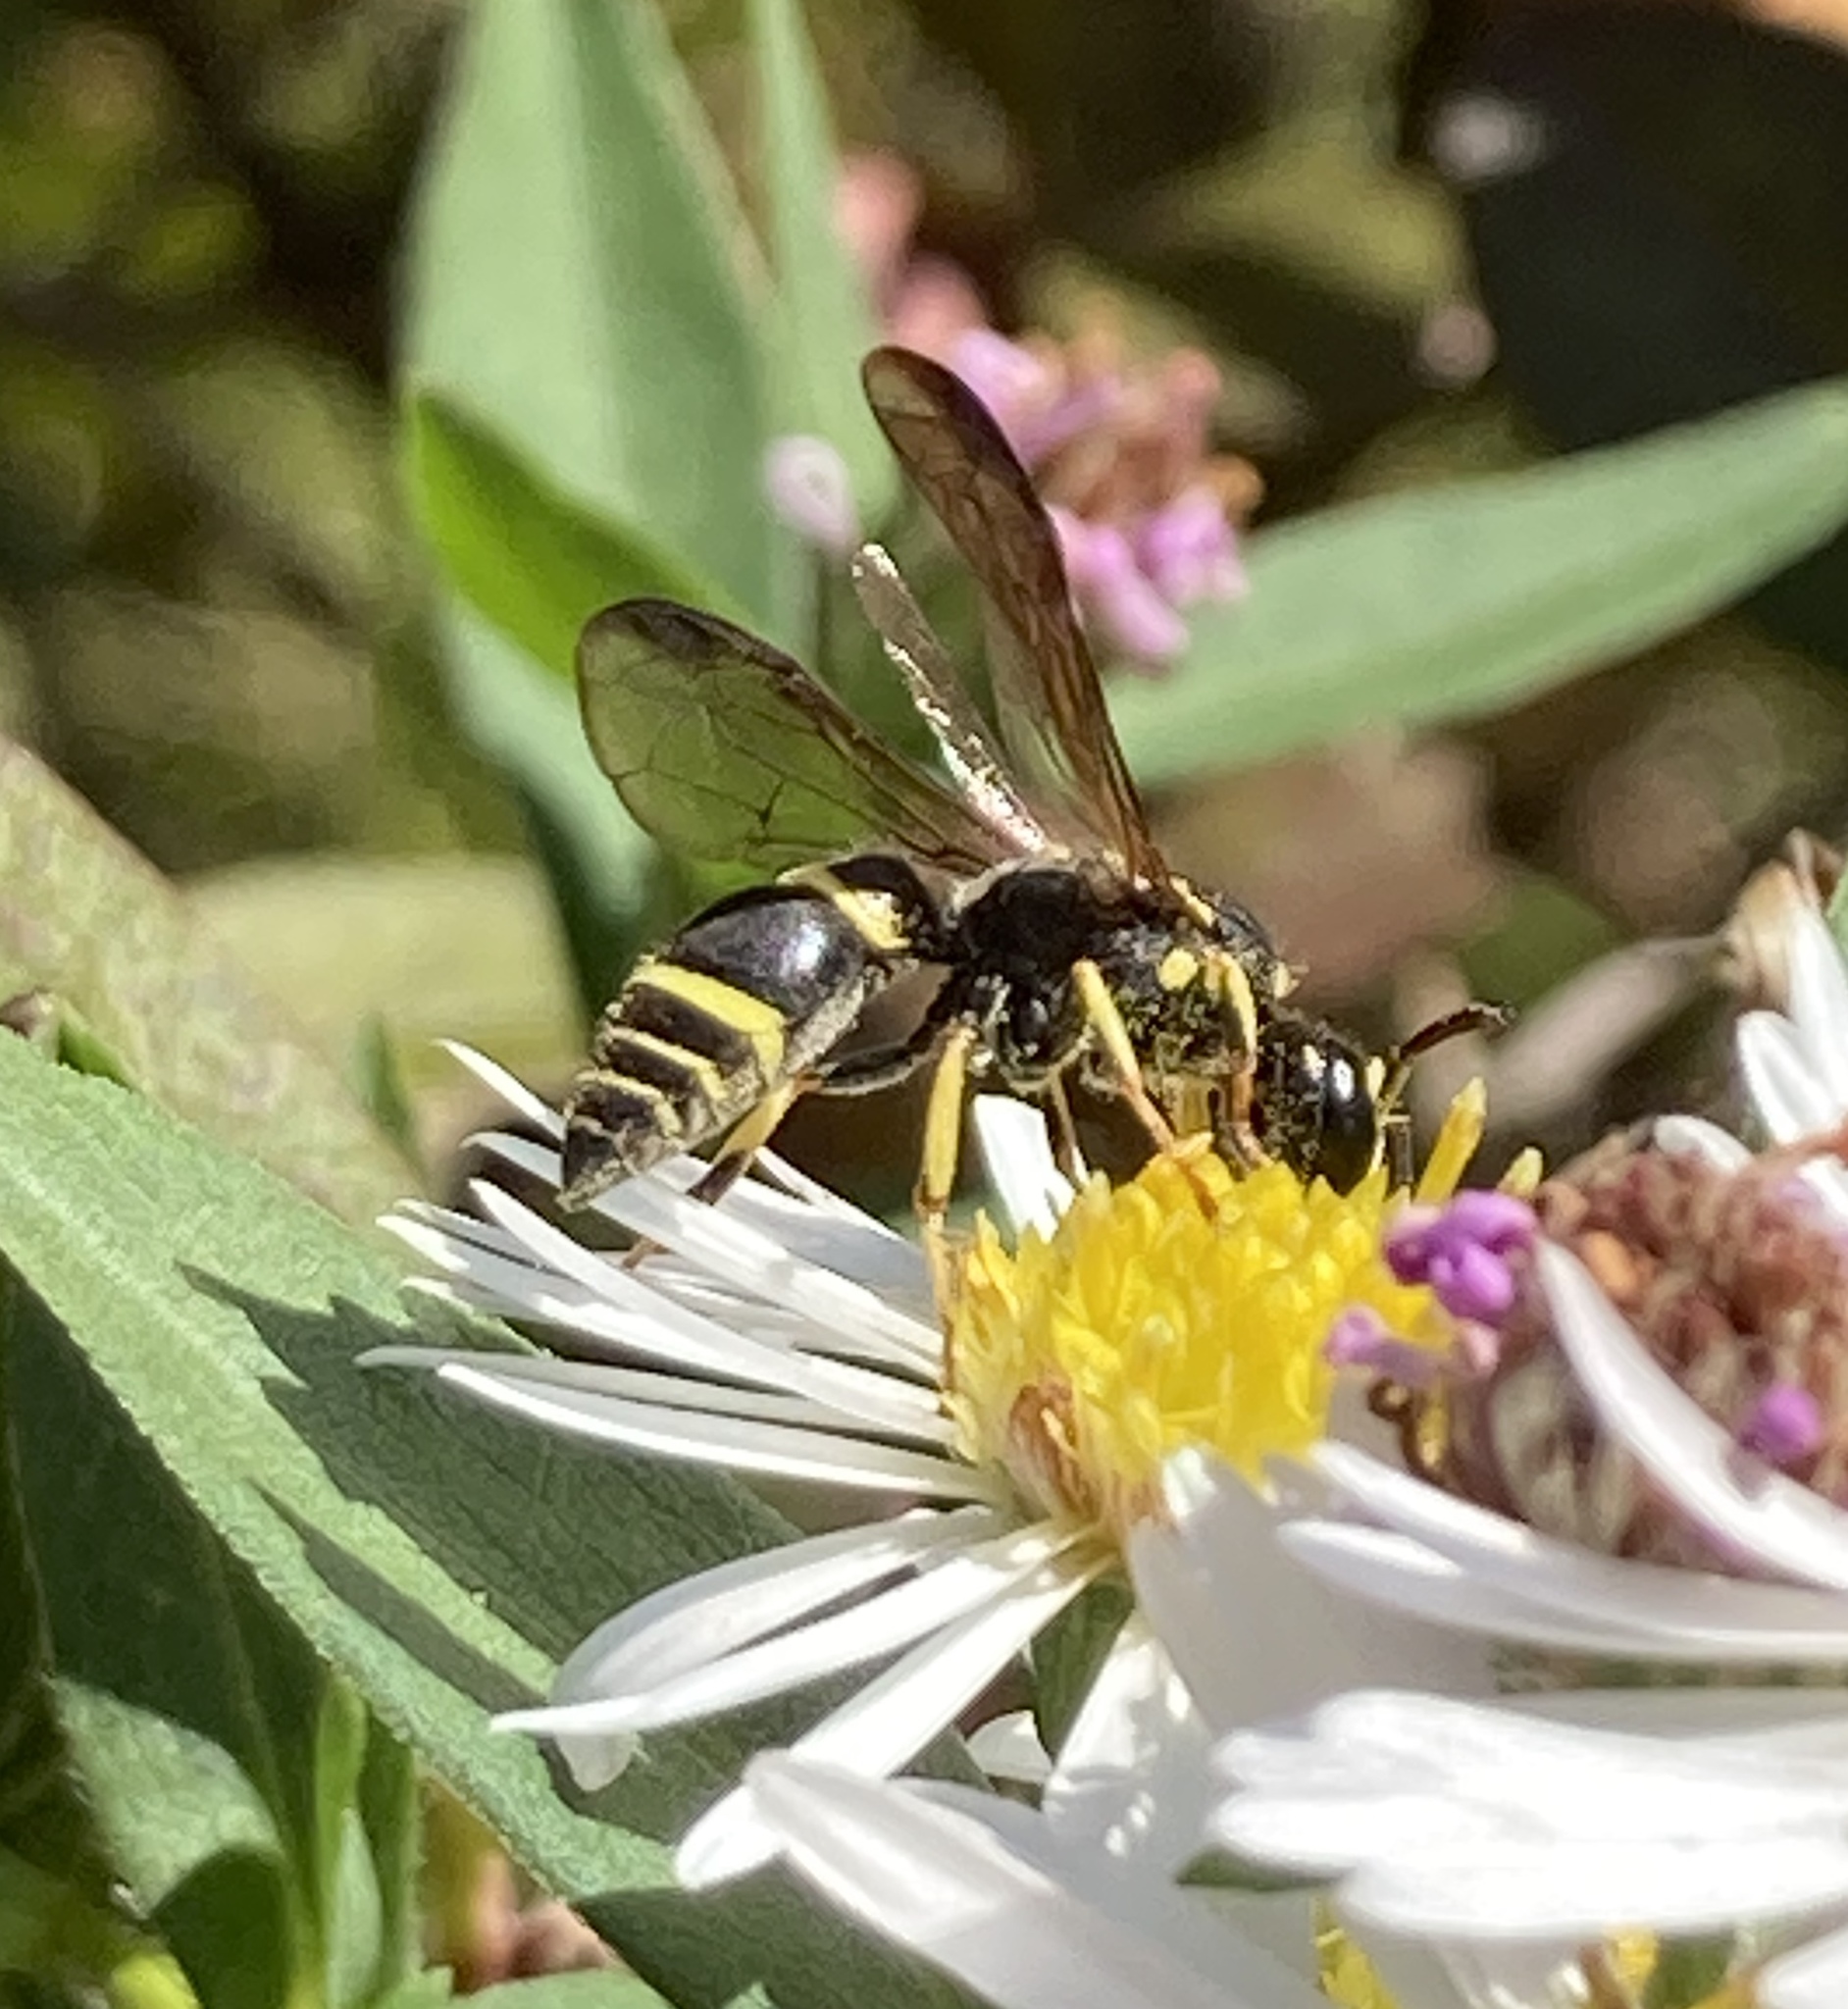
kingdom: Animalia
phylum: Arthropoda
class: Insecta
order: Hymenoptera
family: Vespidae
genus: Ancistrocerus
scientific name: Ancistrocerus adiabatus
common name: Bramble mason wasp
